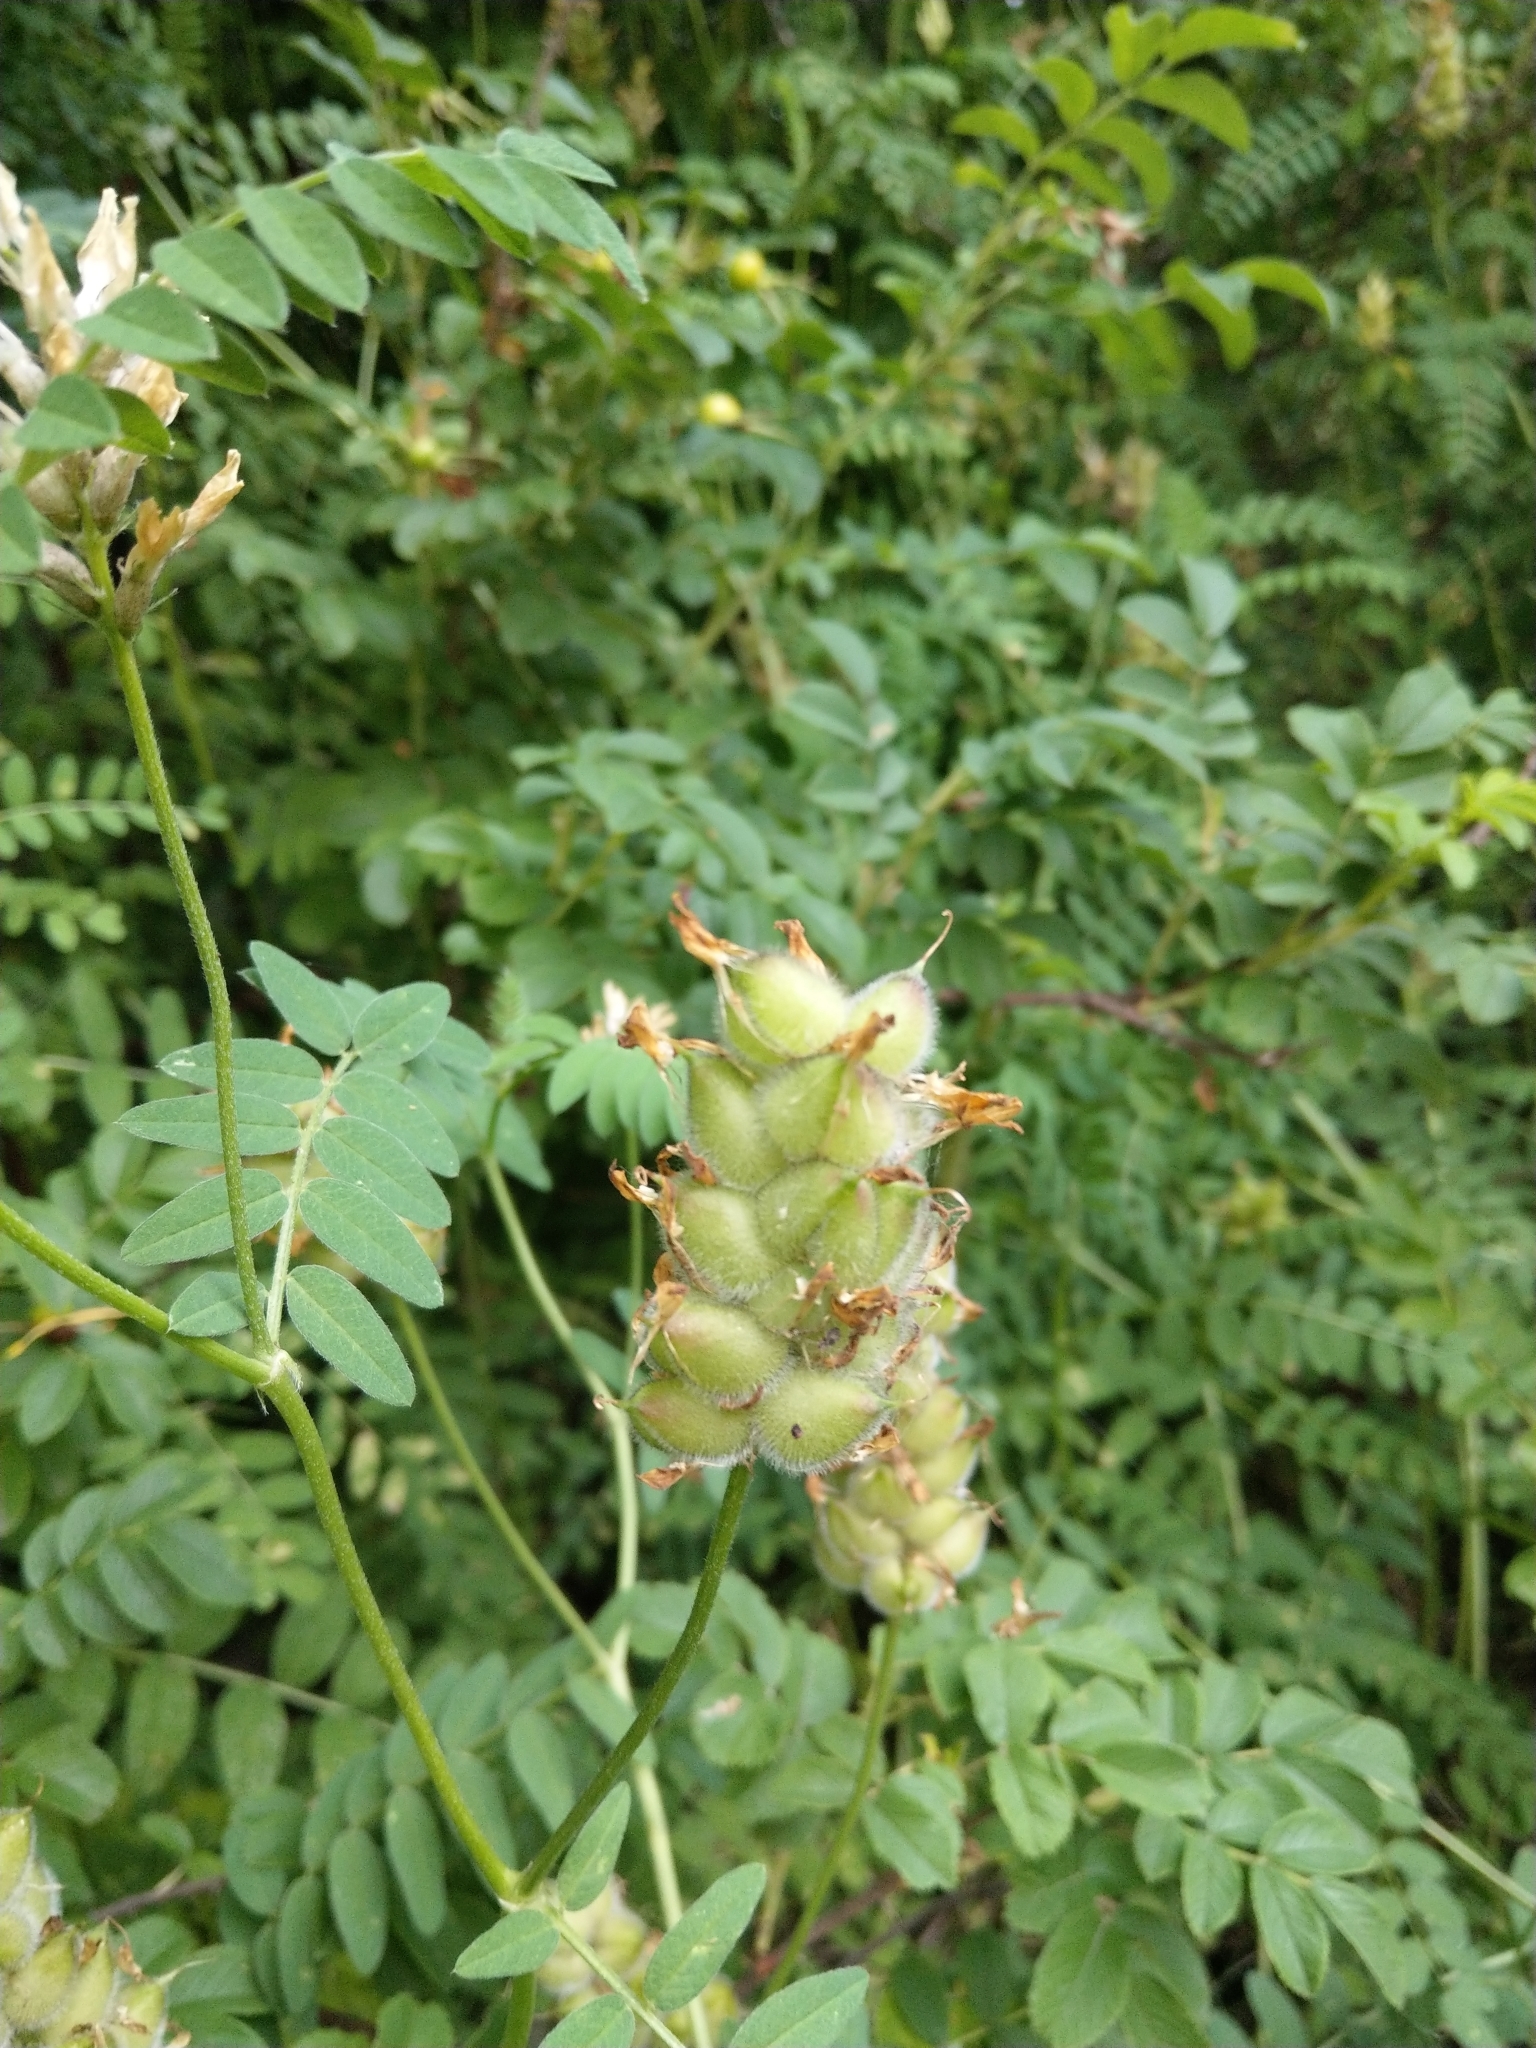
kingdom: Plantae
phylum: Tracheophyta
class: Magnoliopsida
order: Fabales
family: Fabaceae
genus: Astragalus
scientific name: Astragalus cicer
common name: Chick-pea milk-vetch
